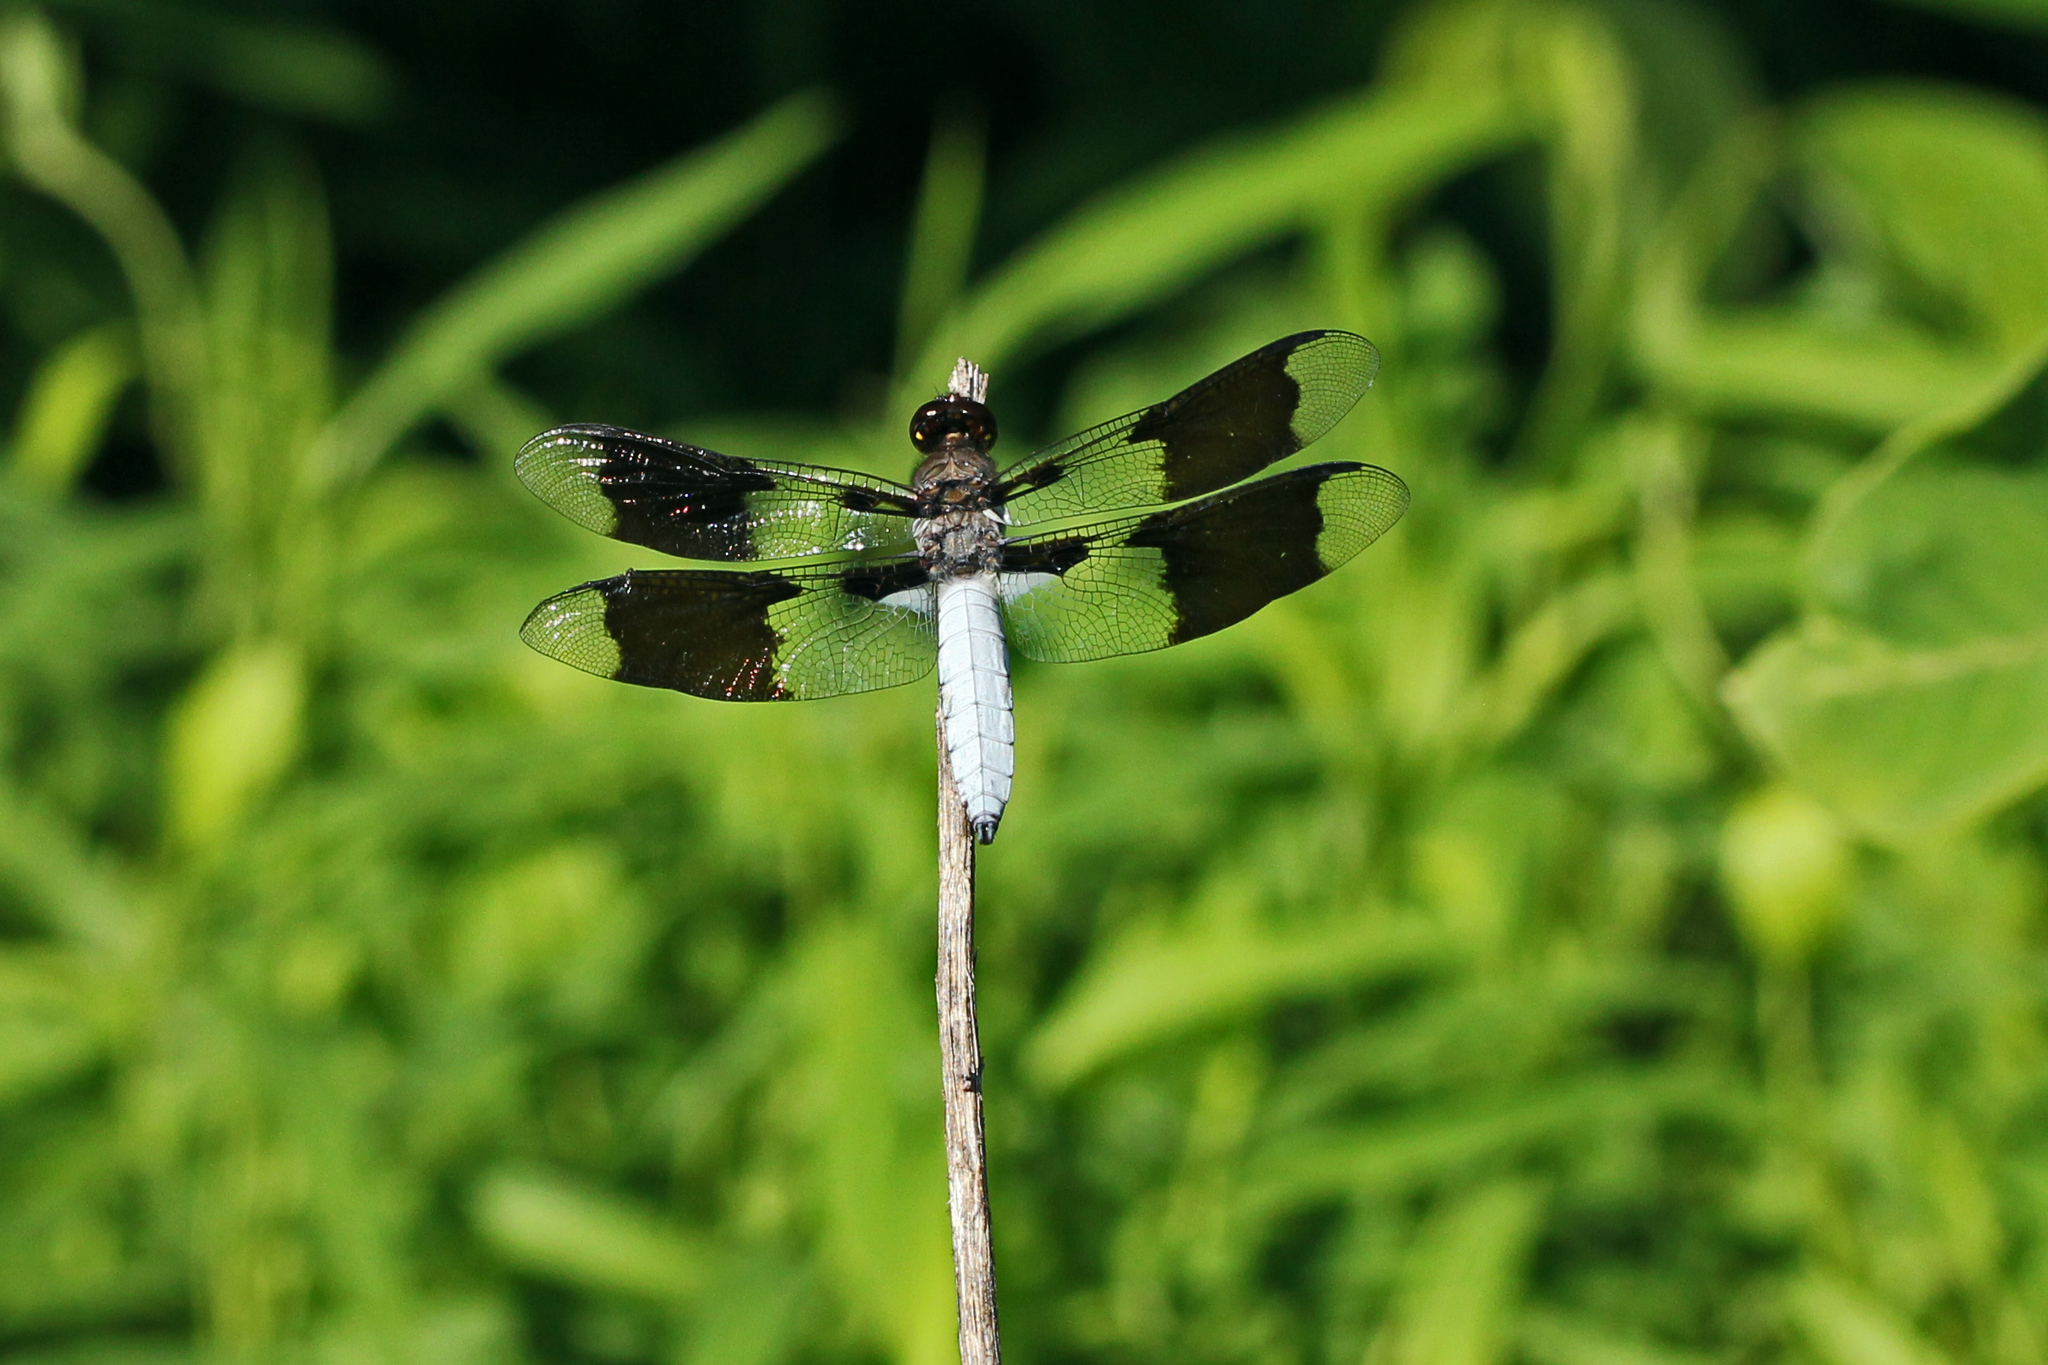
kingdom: Animalia
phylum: Arthropoda
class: Insecta
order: Odonata
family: Libellulidae
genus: Plathemis
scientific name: Plathemis lydia
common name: Common whitetail
